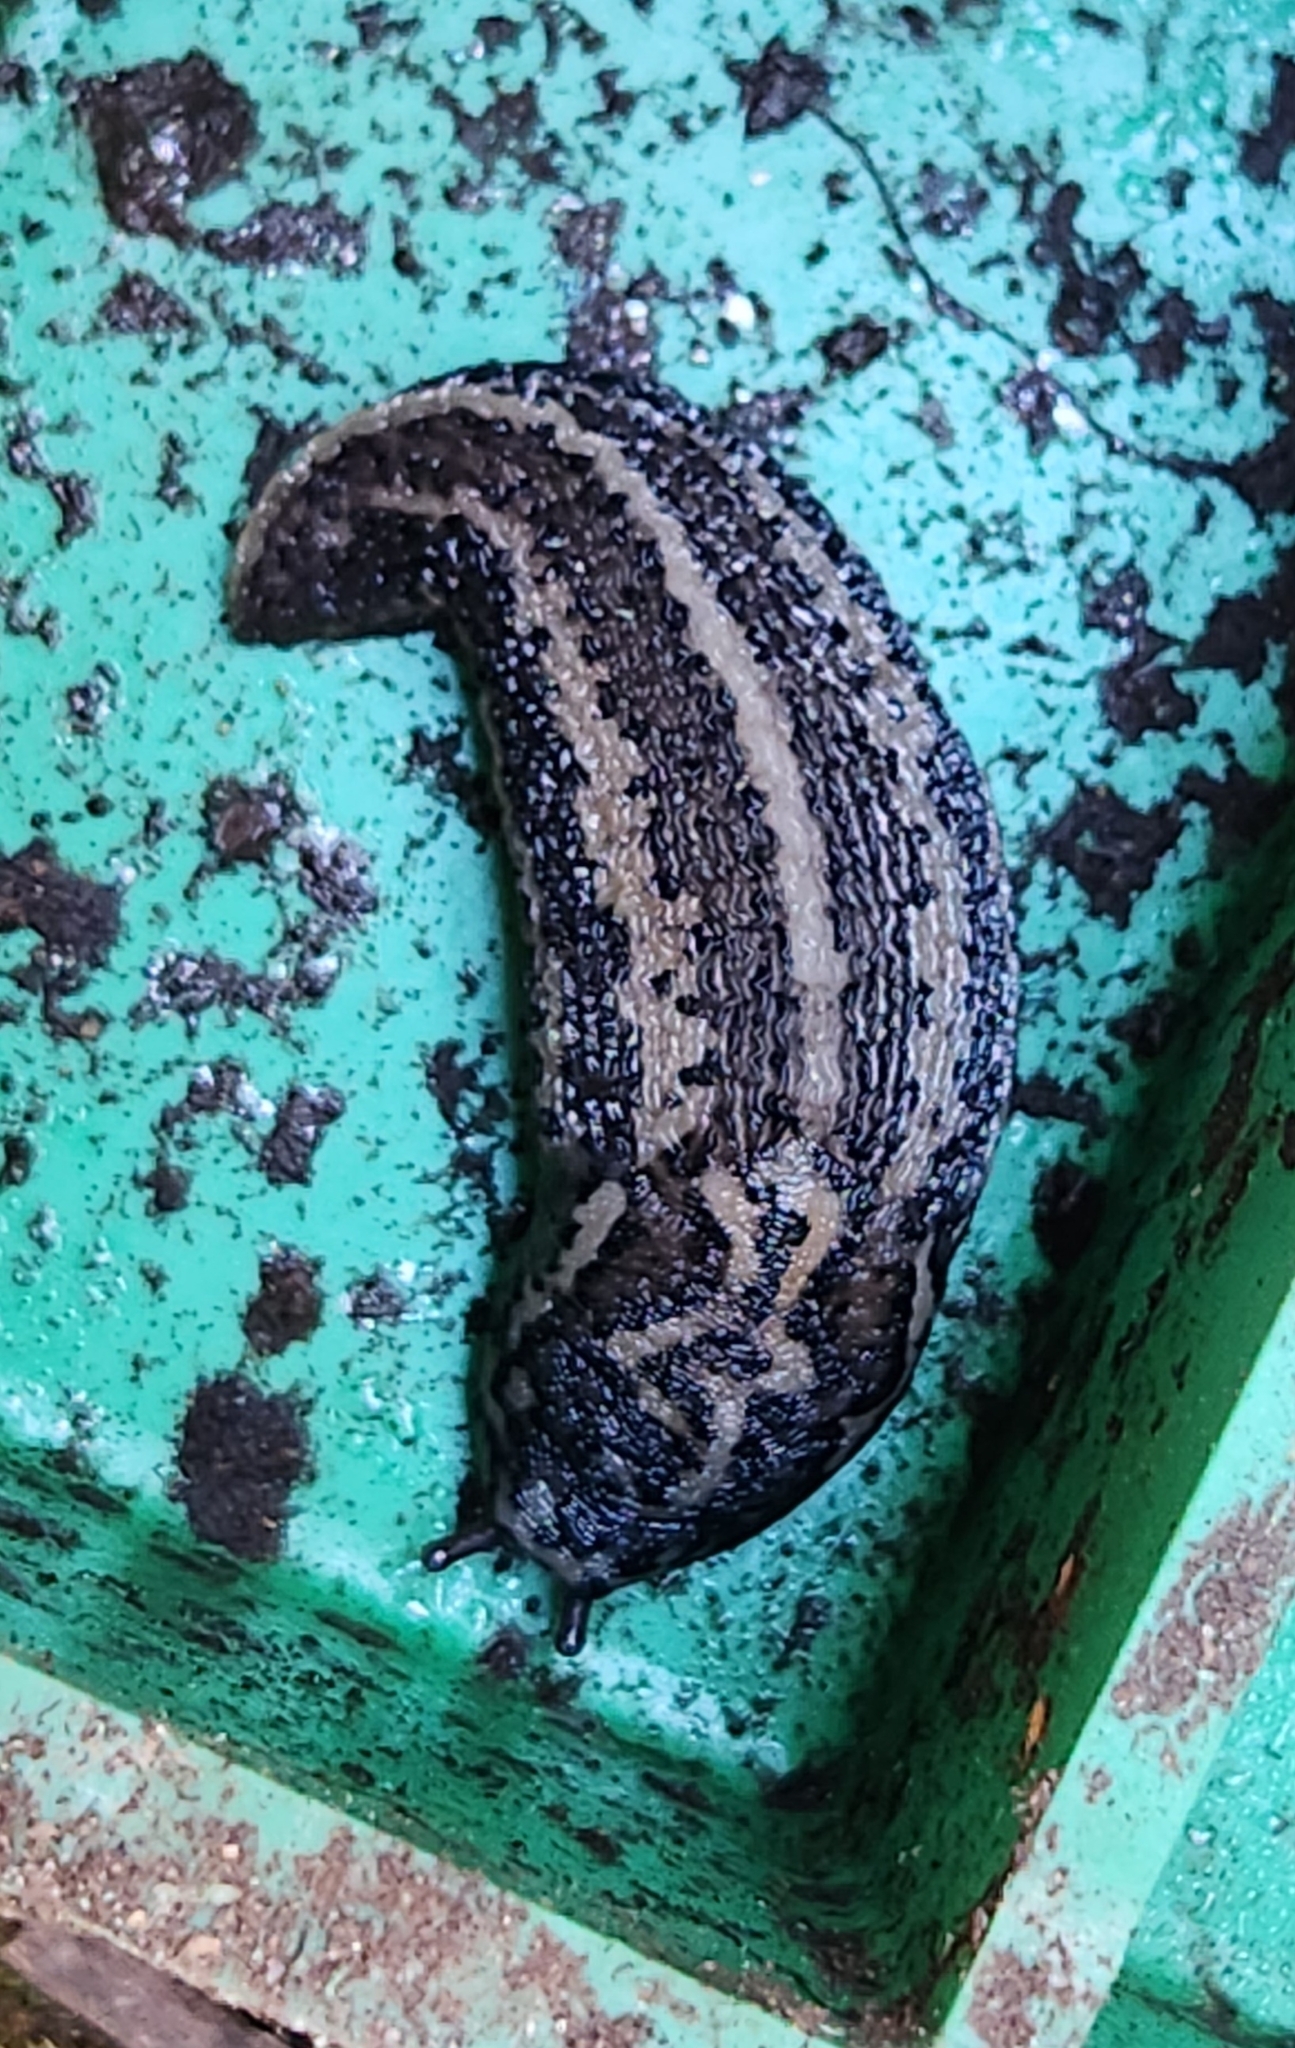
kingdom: Animalia
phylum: Mollusca
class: Gastropoda
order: Stylommatophora
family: Limacidae
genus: Limax
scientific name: Limax maximus
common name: Great grey slug
